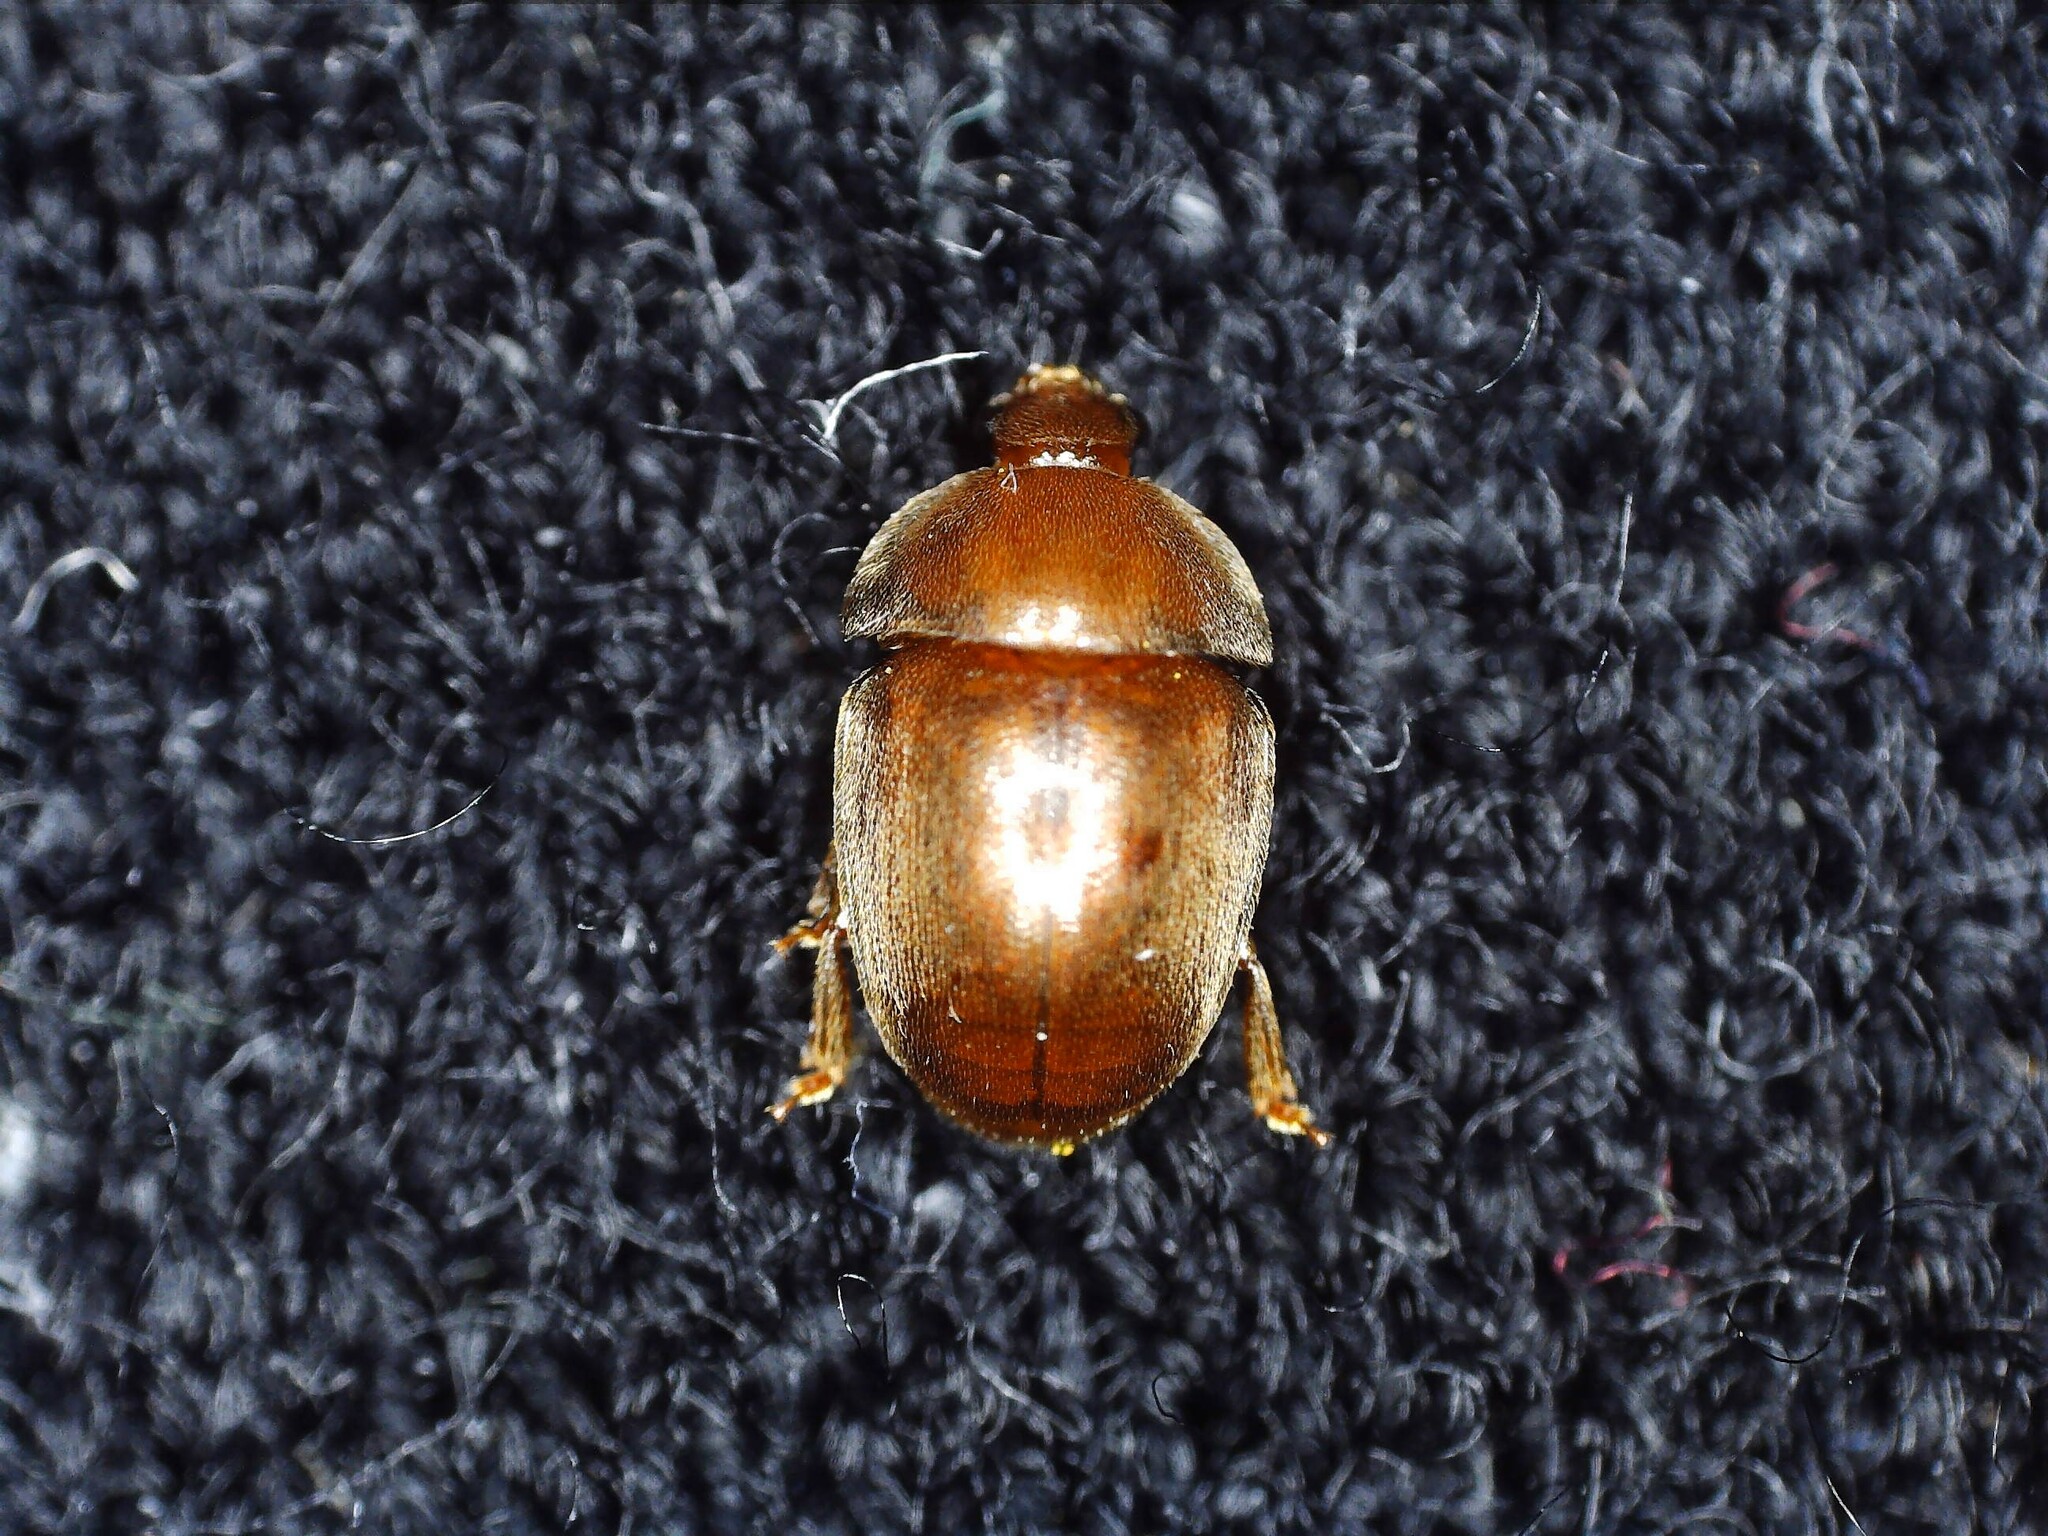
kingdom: Animalia
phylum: Arthropoda
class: Insecta
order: Coleoptera
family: Nitidulidae
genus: Cychramus
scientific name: Cychramus luteus
